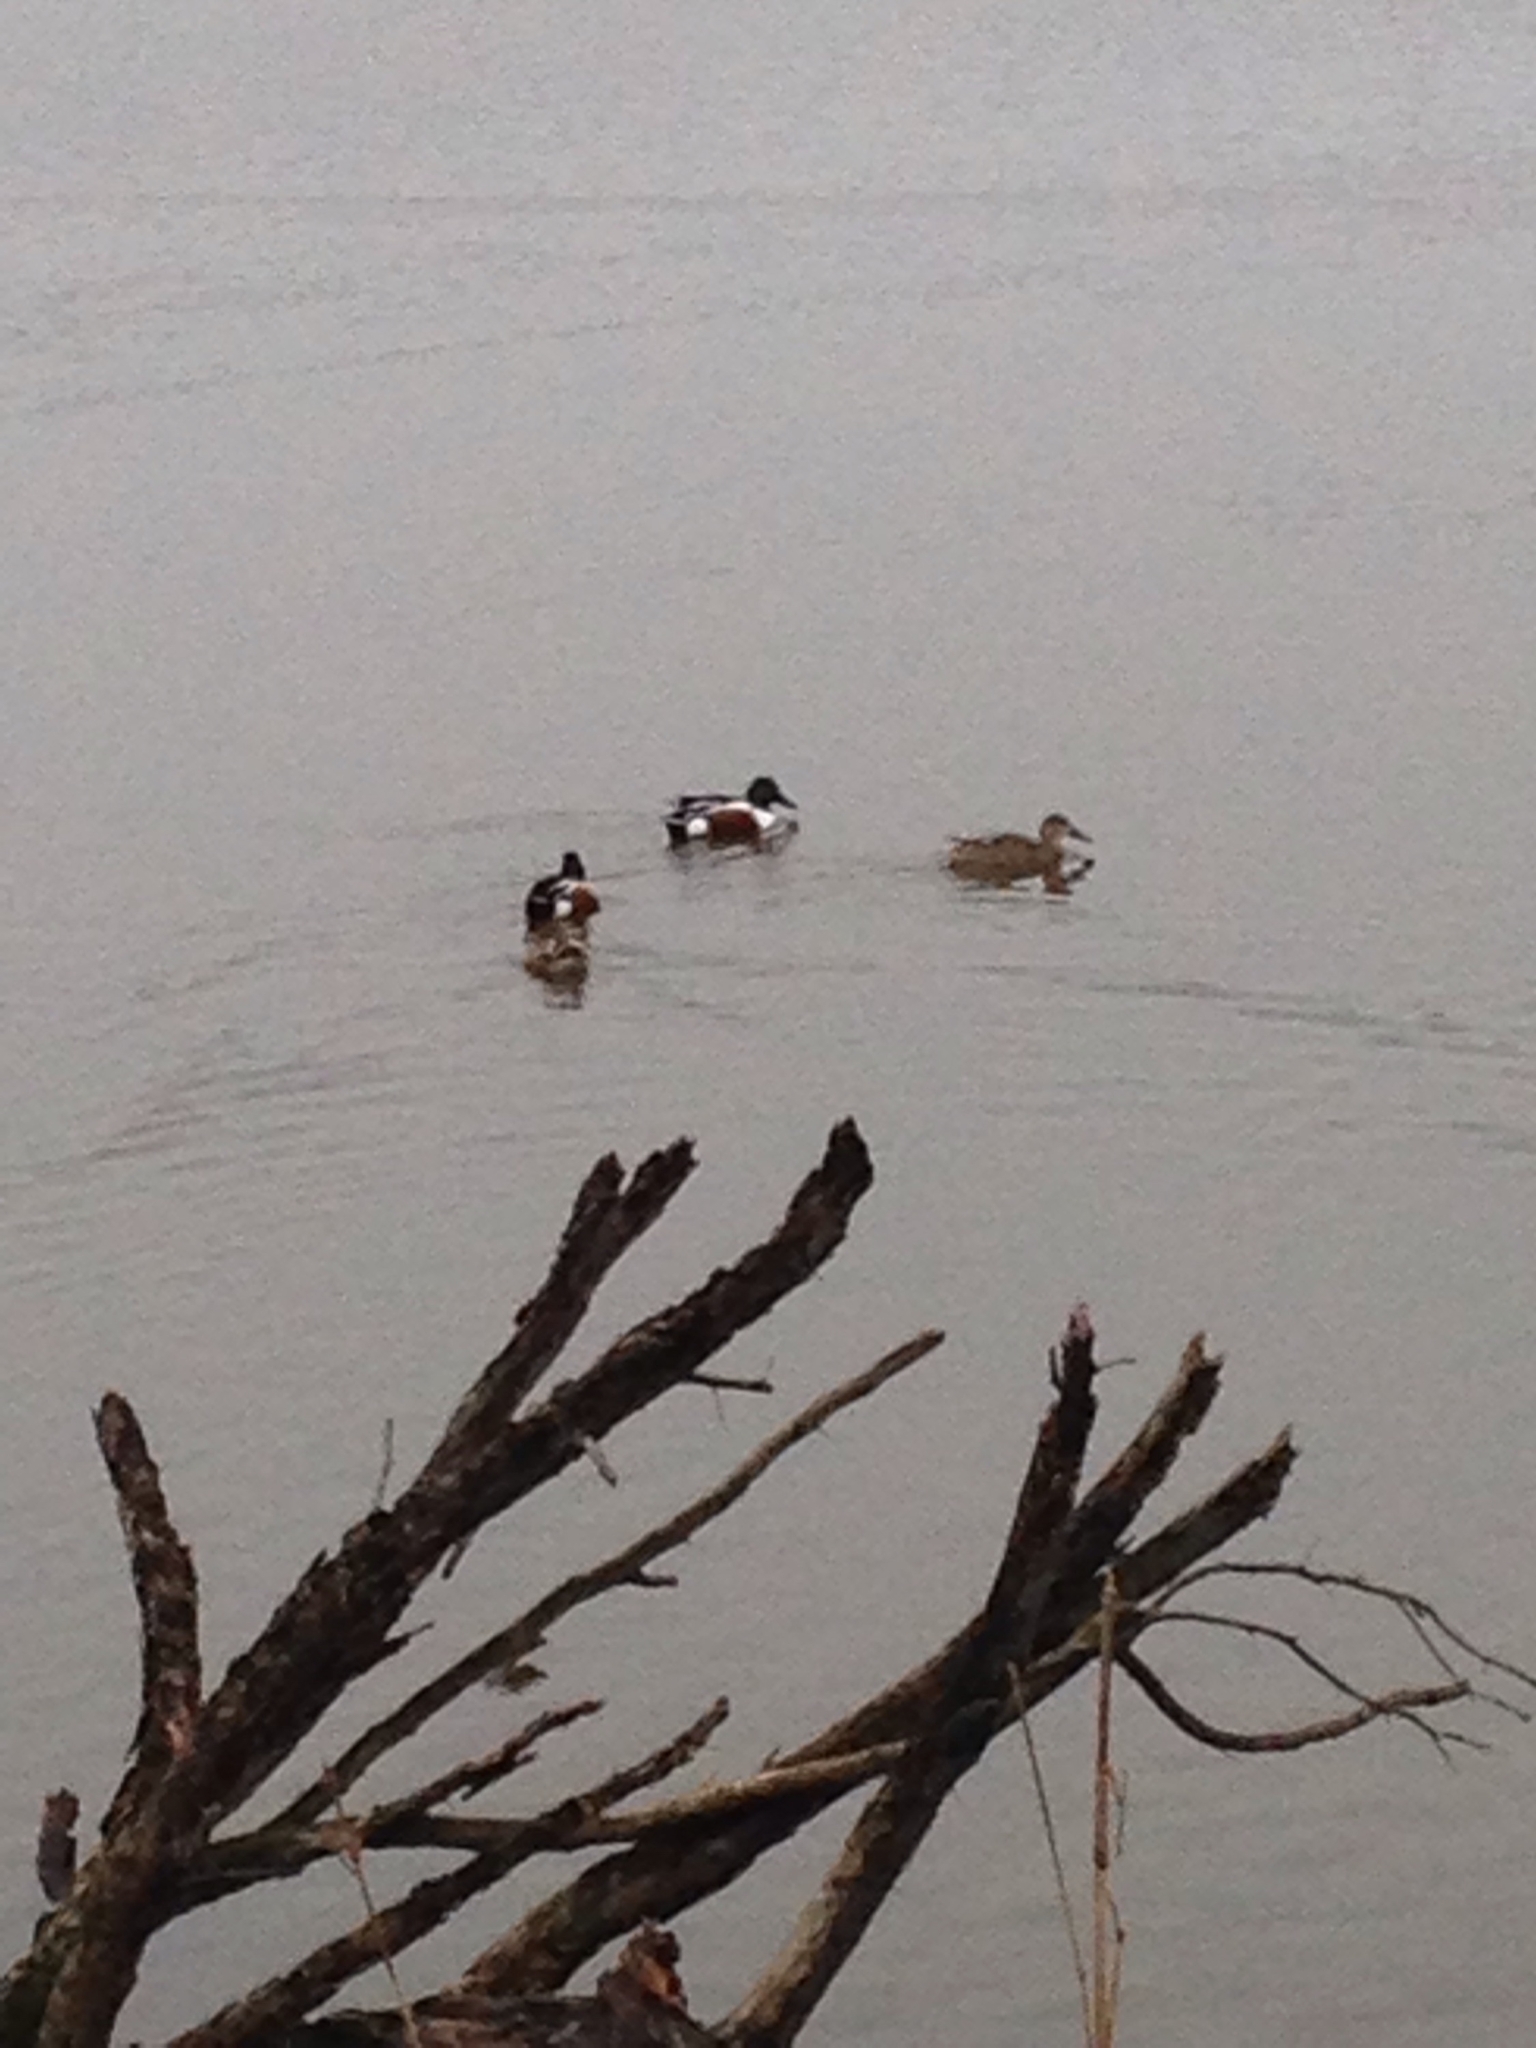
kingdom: Animalia
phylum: Chordata
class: Aves
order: Anseriformes
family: Anatidae
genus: Spatula
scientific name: Spatula clypeata
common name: Northern shoveler
